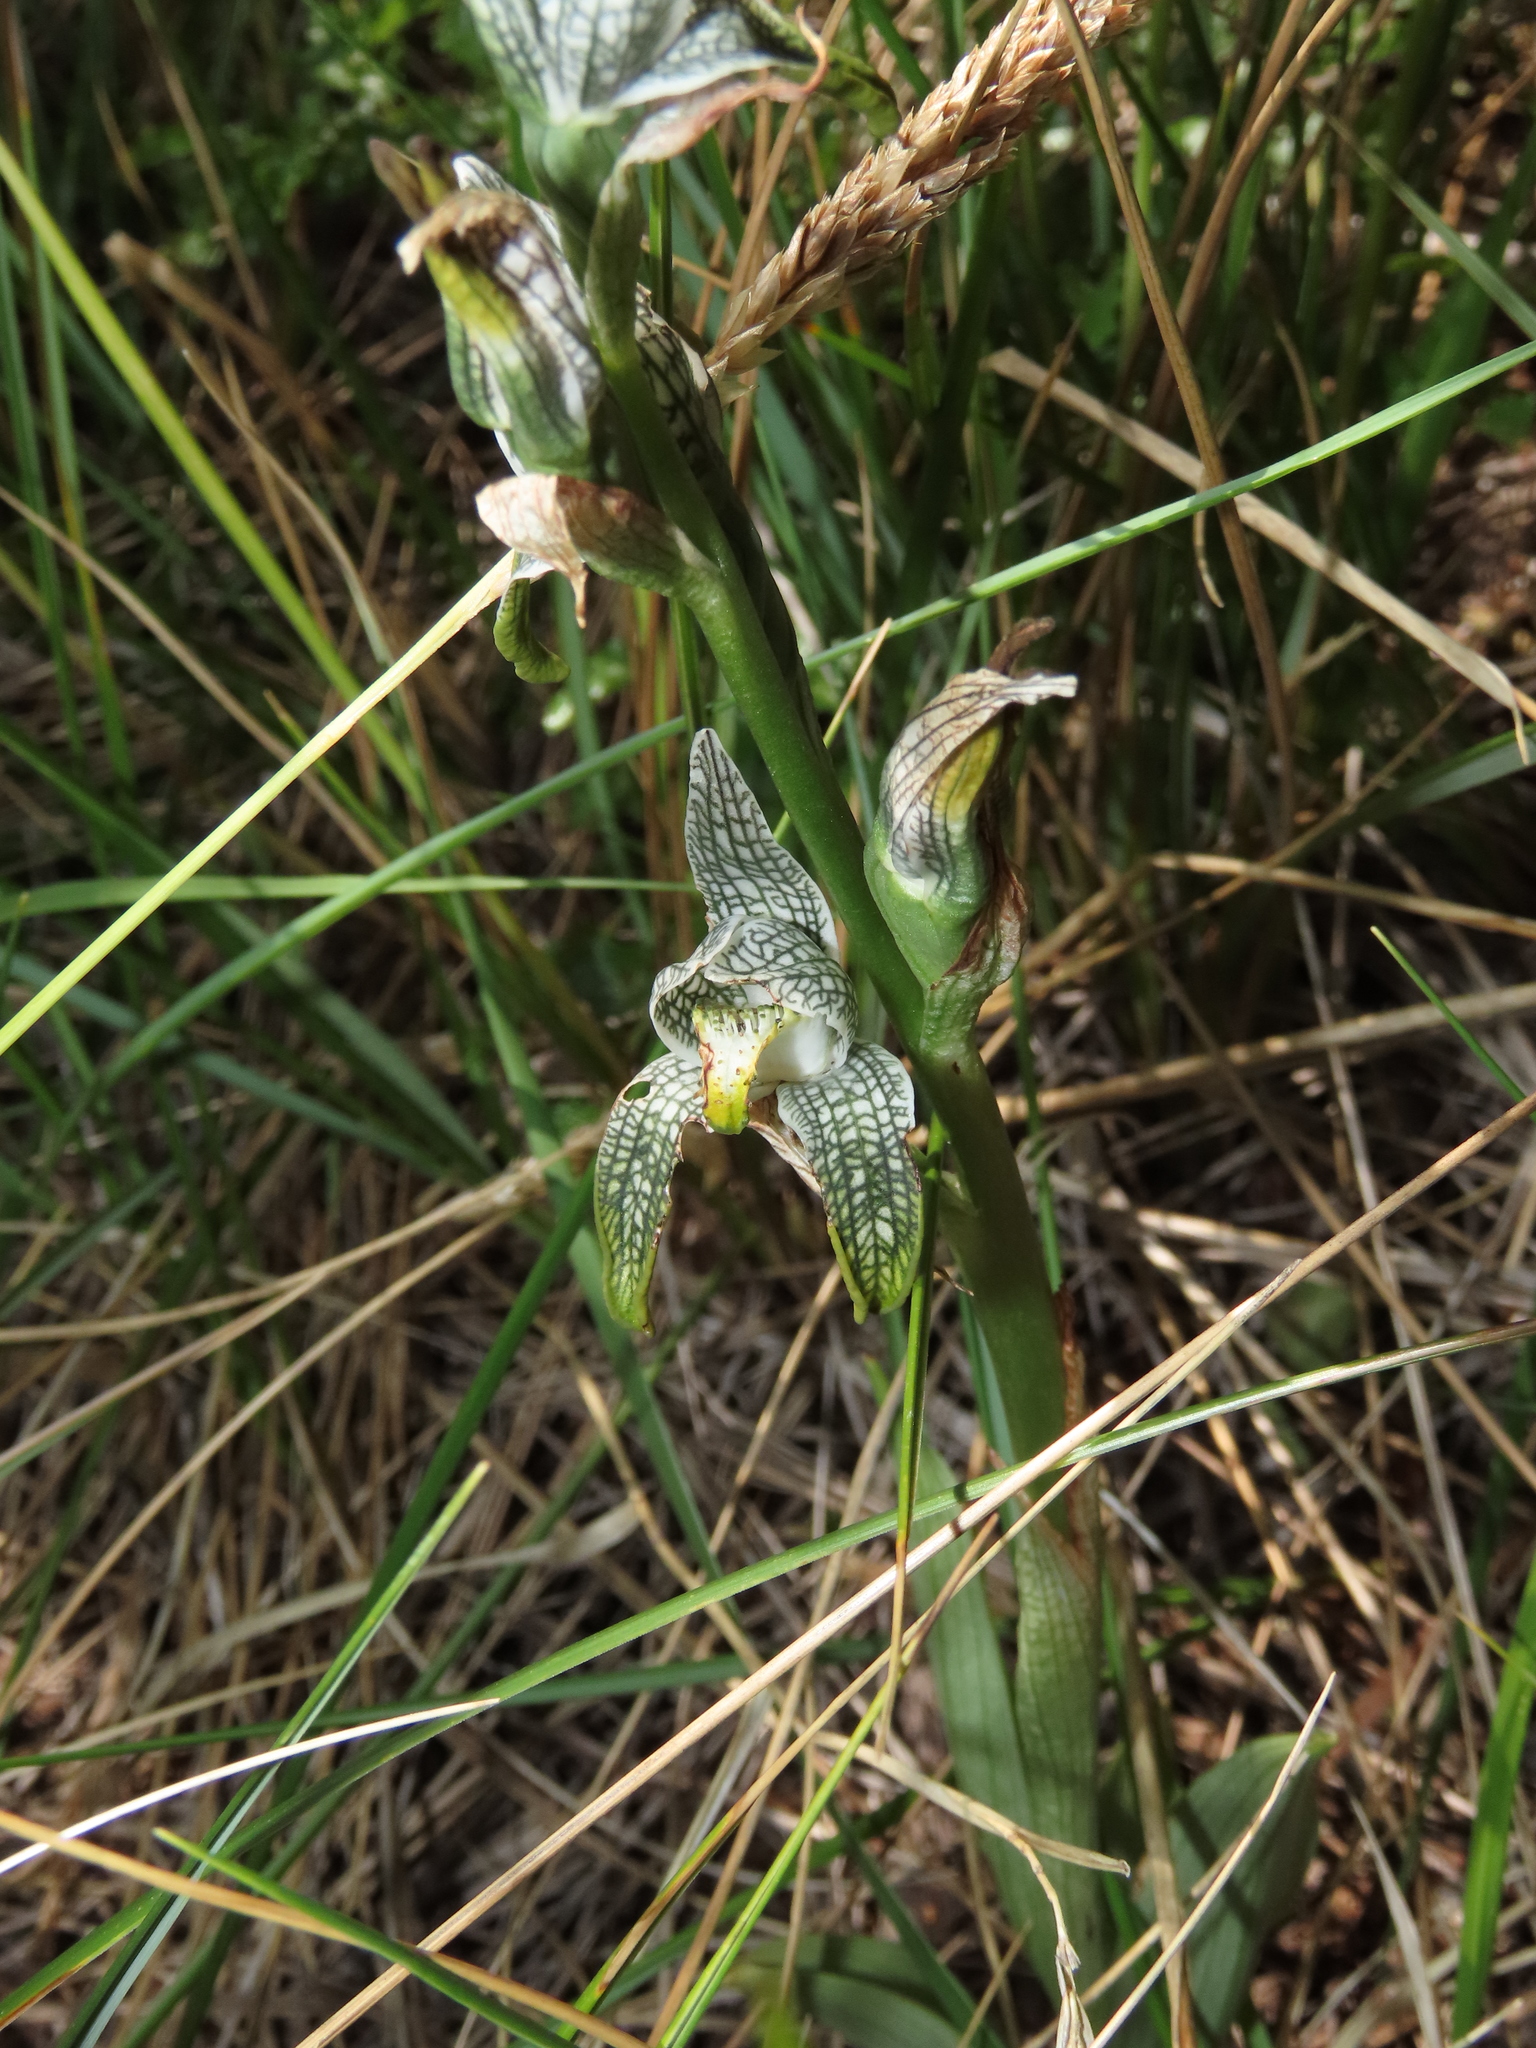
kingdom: Plantae
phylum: Tracheophyta
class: Liliopsida
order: Asparagales
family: Orchidaceae
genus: Chloraea
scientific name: Chloraea magellanica
